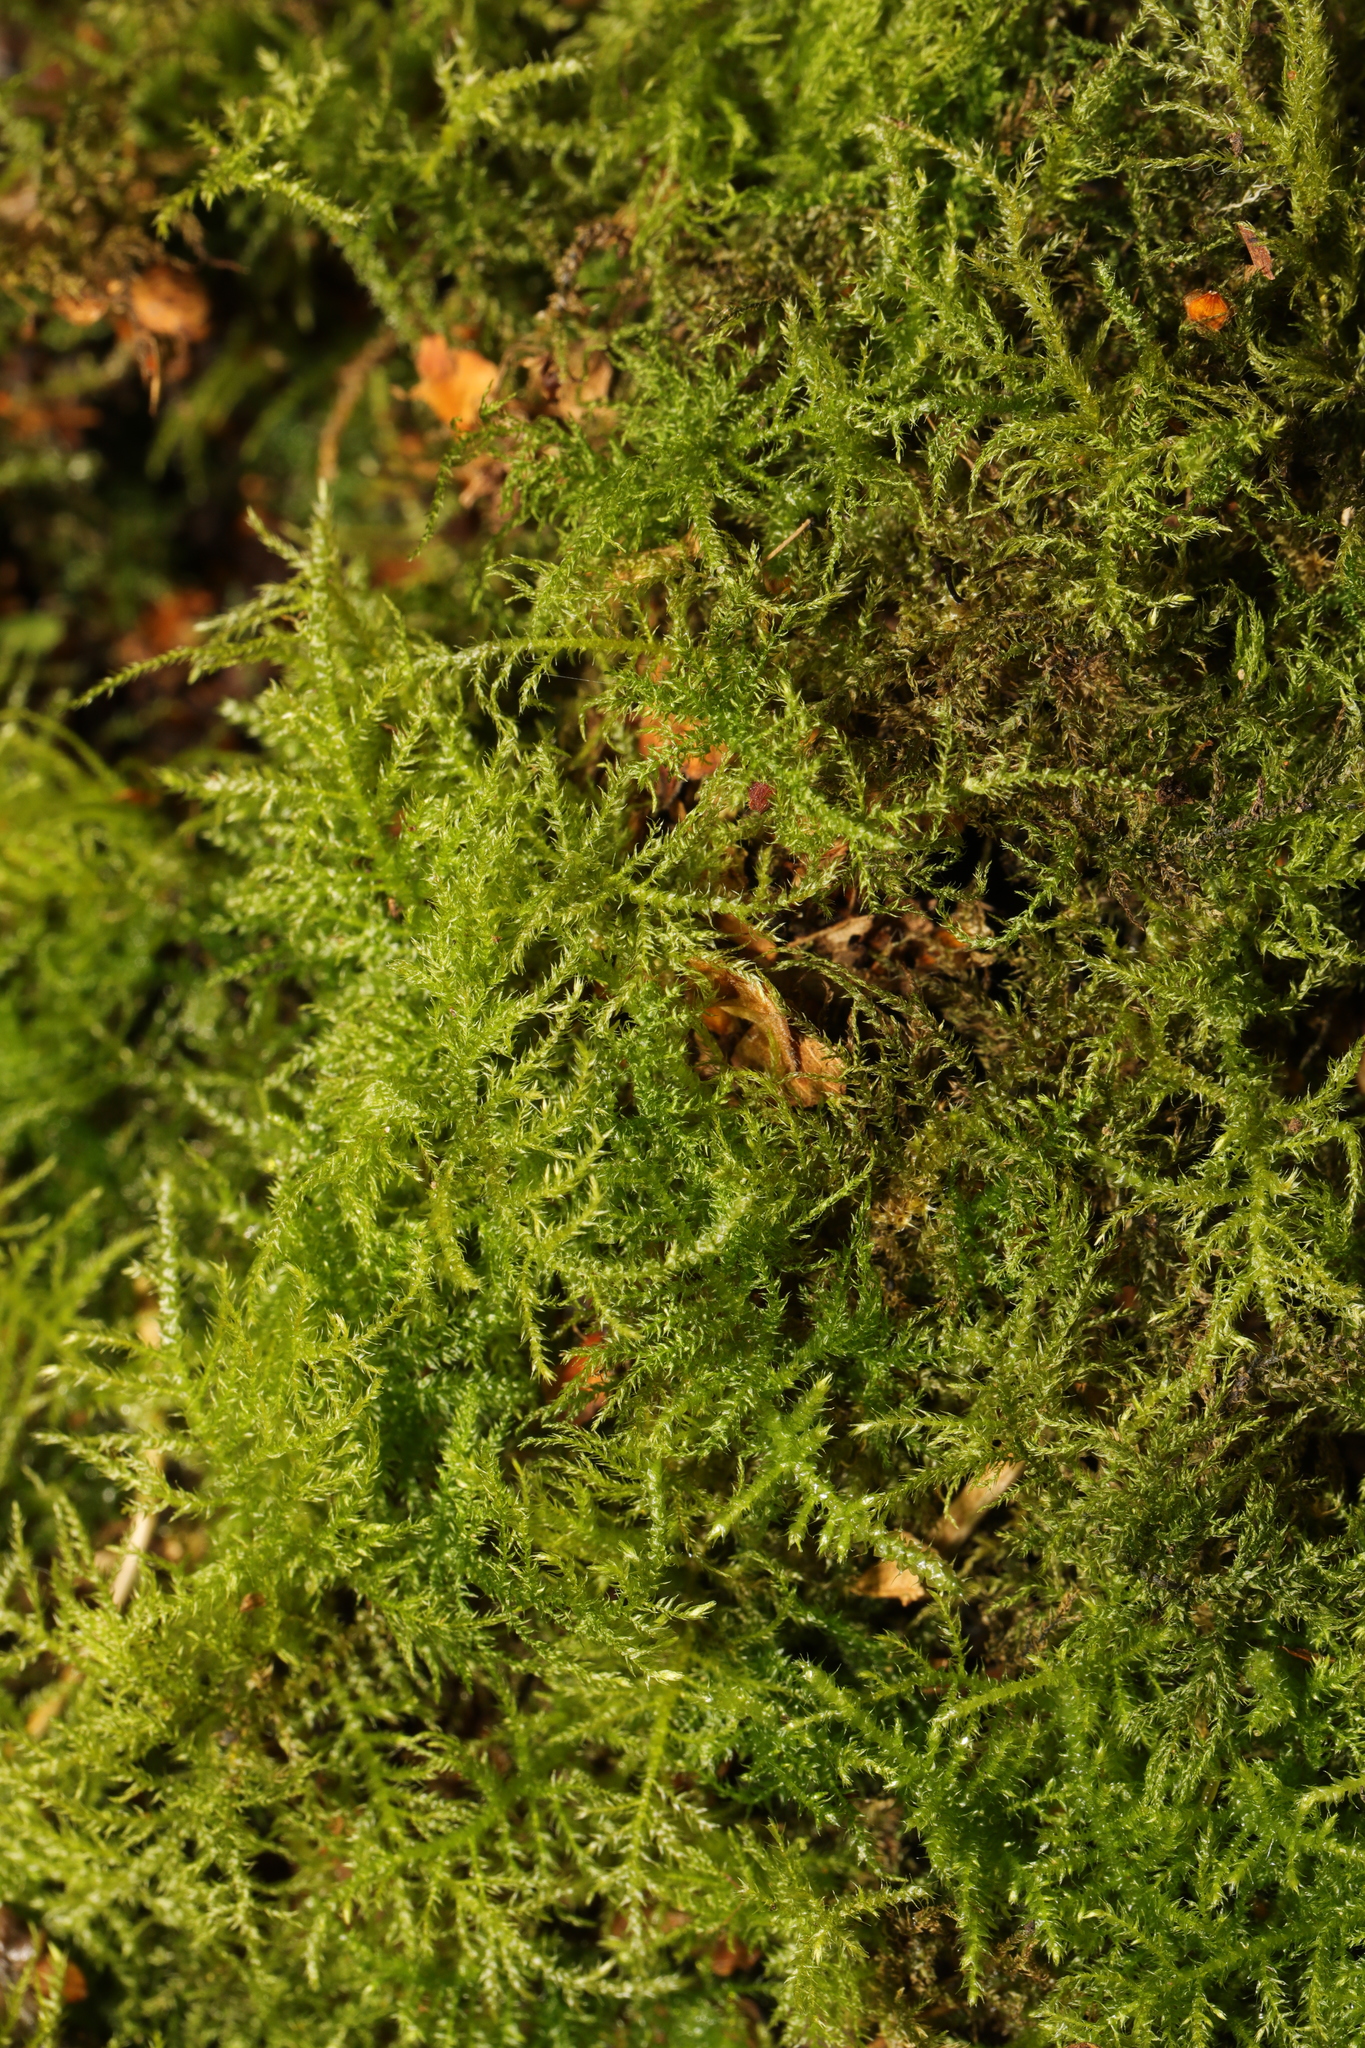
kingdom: Plantae
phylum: Bryophyta
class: Bryopsida
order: Hypnales
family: Brachytheciaceae
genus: Kindbergia
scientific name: Kindbergia praelonga
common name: Slender beaked moss
